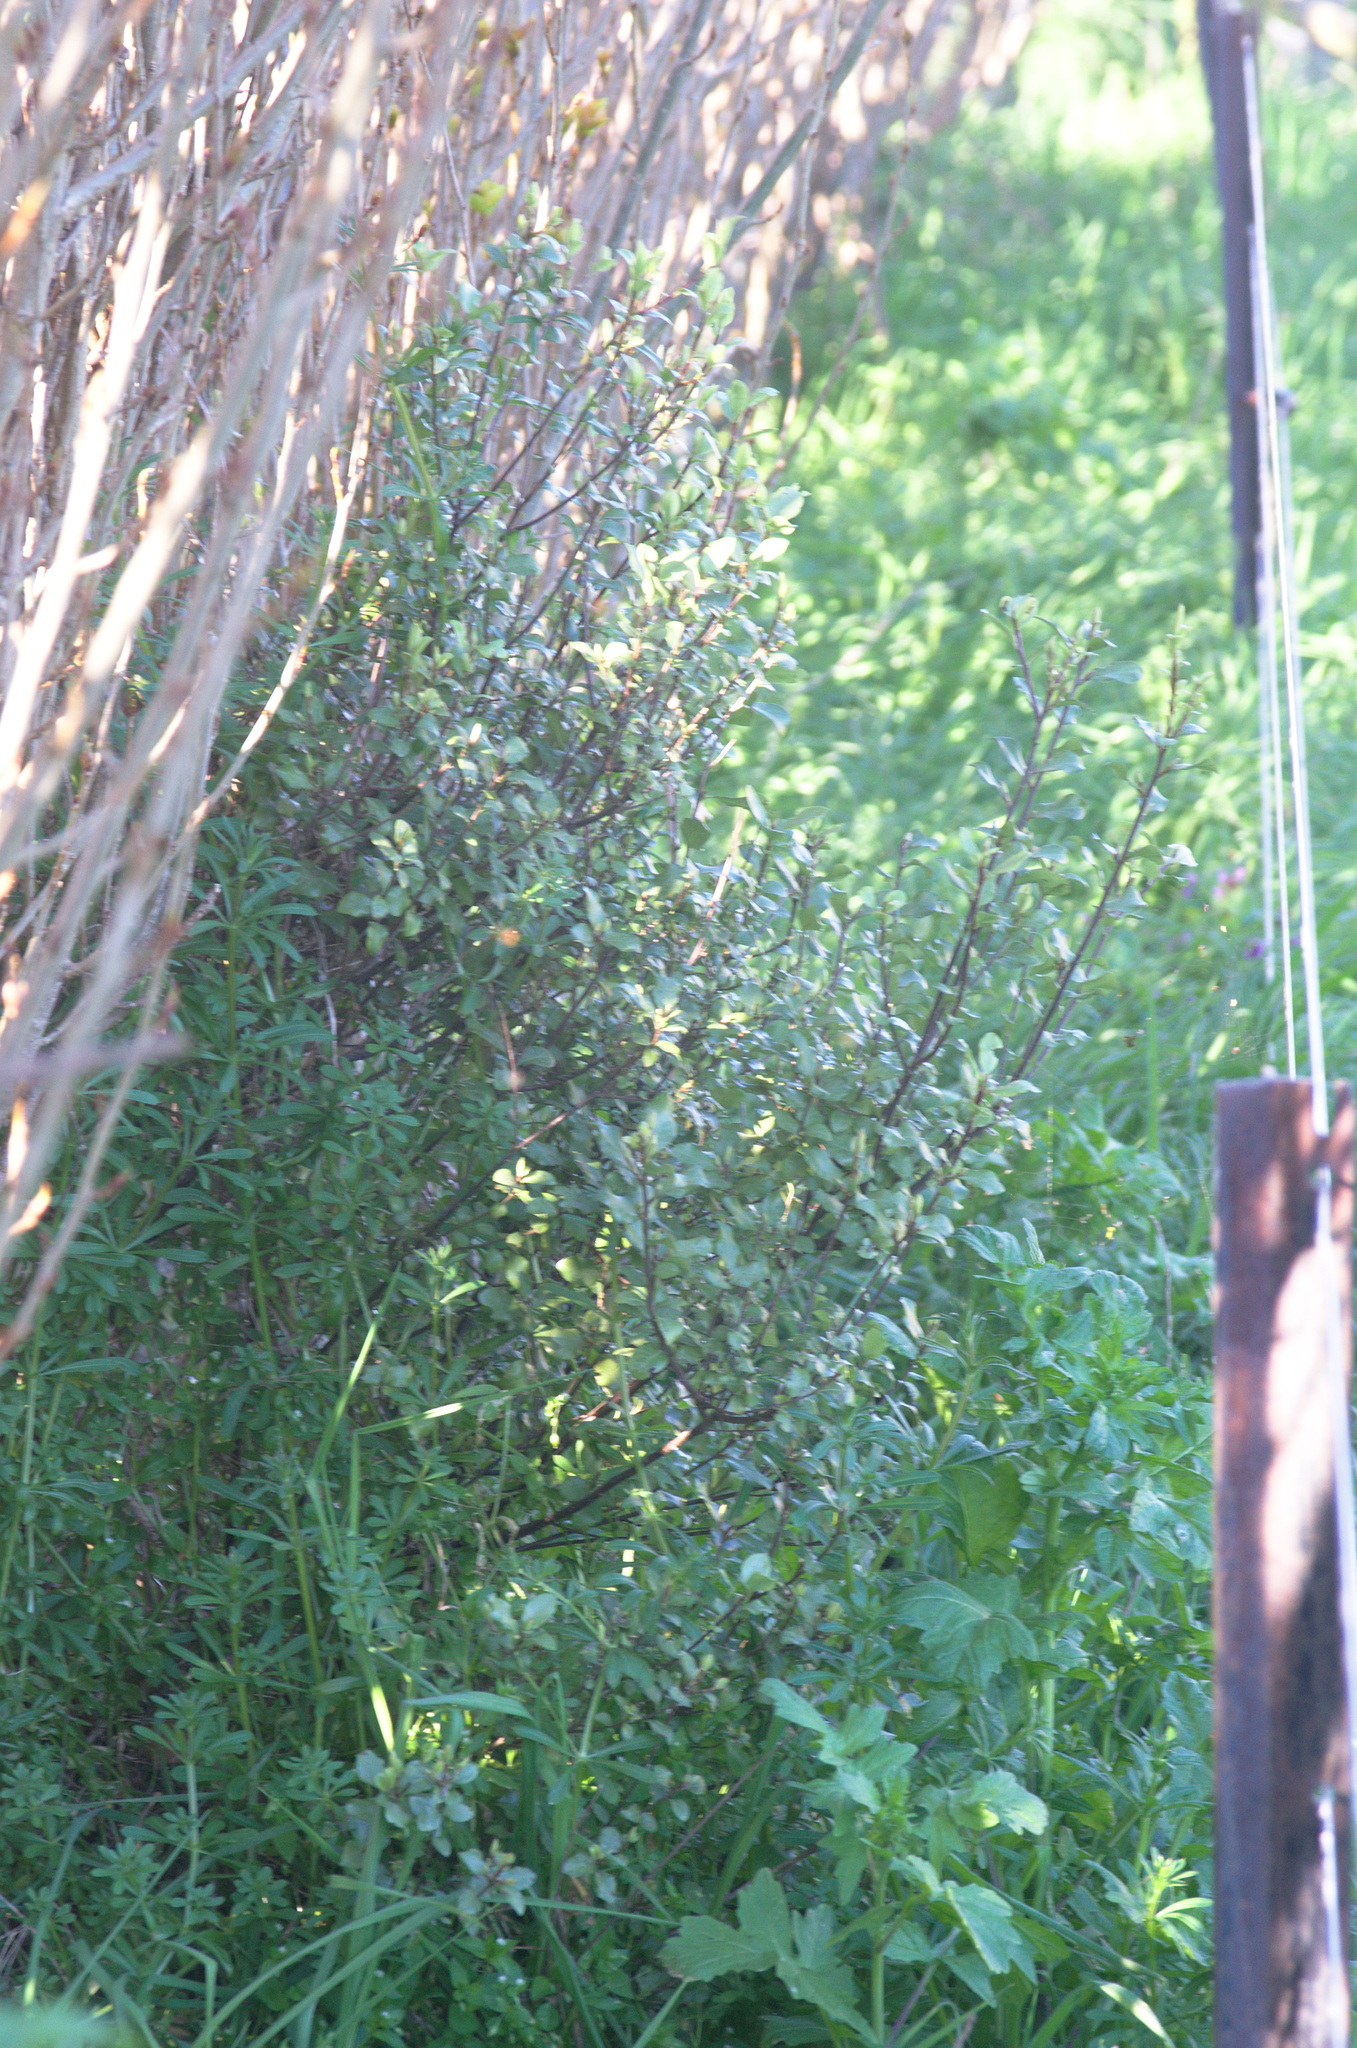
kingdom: Plantae
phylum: Tracheophyta
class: Magnoliopsida
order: Apiales
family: Pittosporaceae
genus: Pittosporum
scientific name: Pittosporum tenuifolium
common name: Kohuhu
